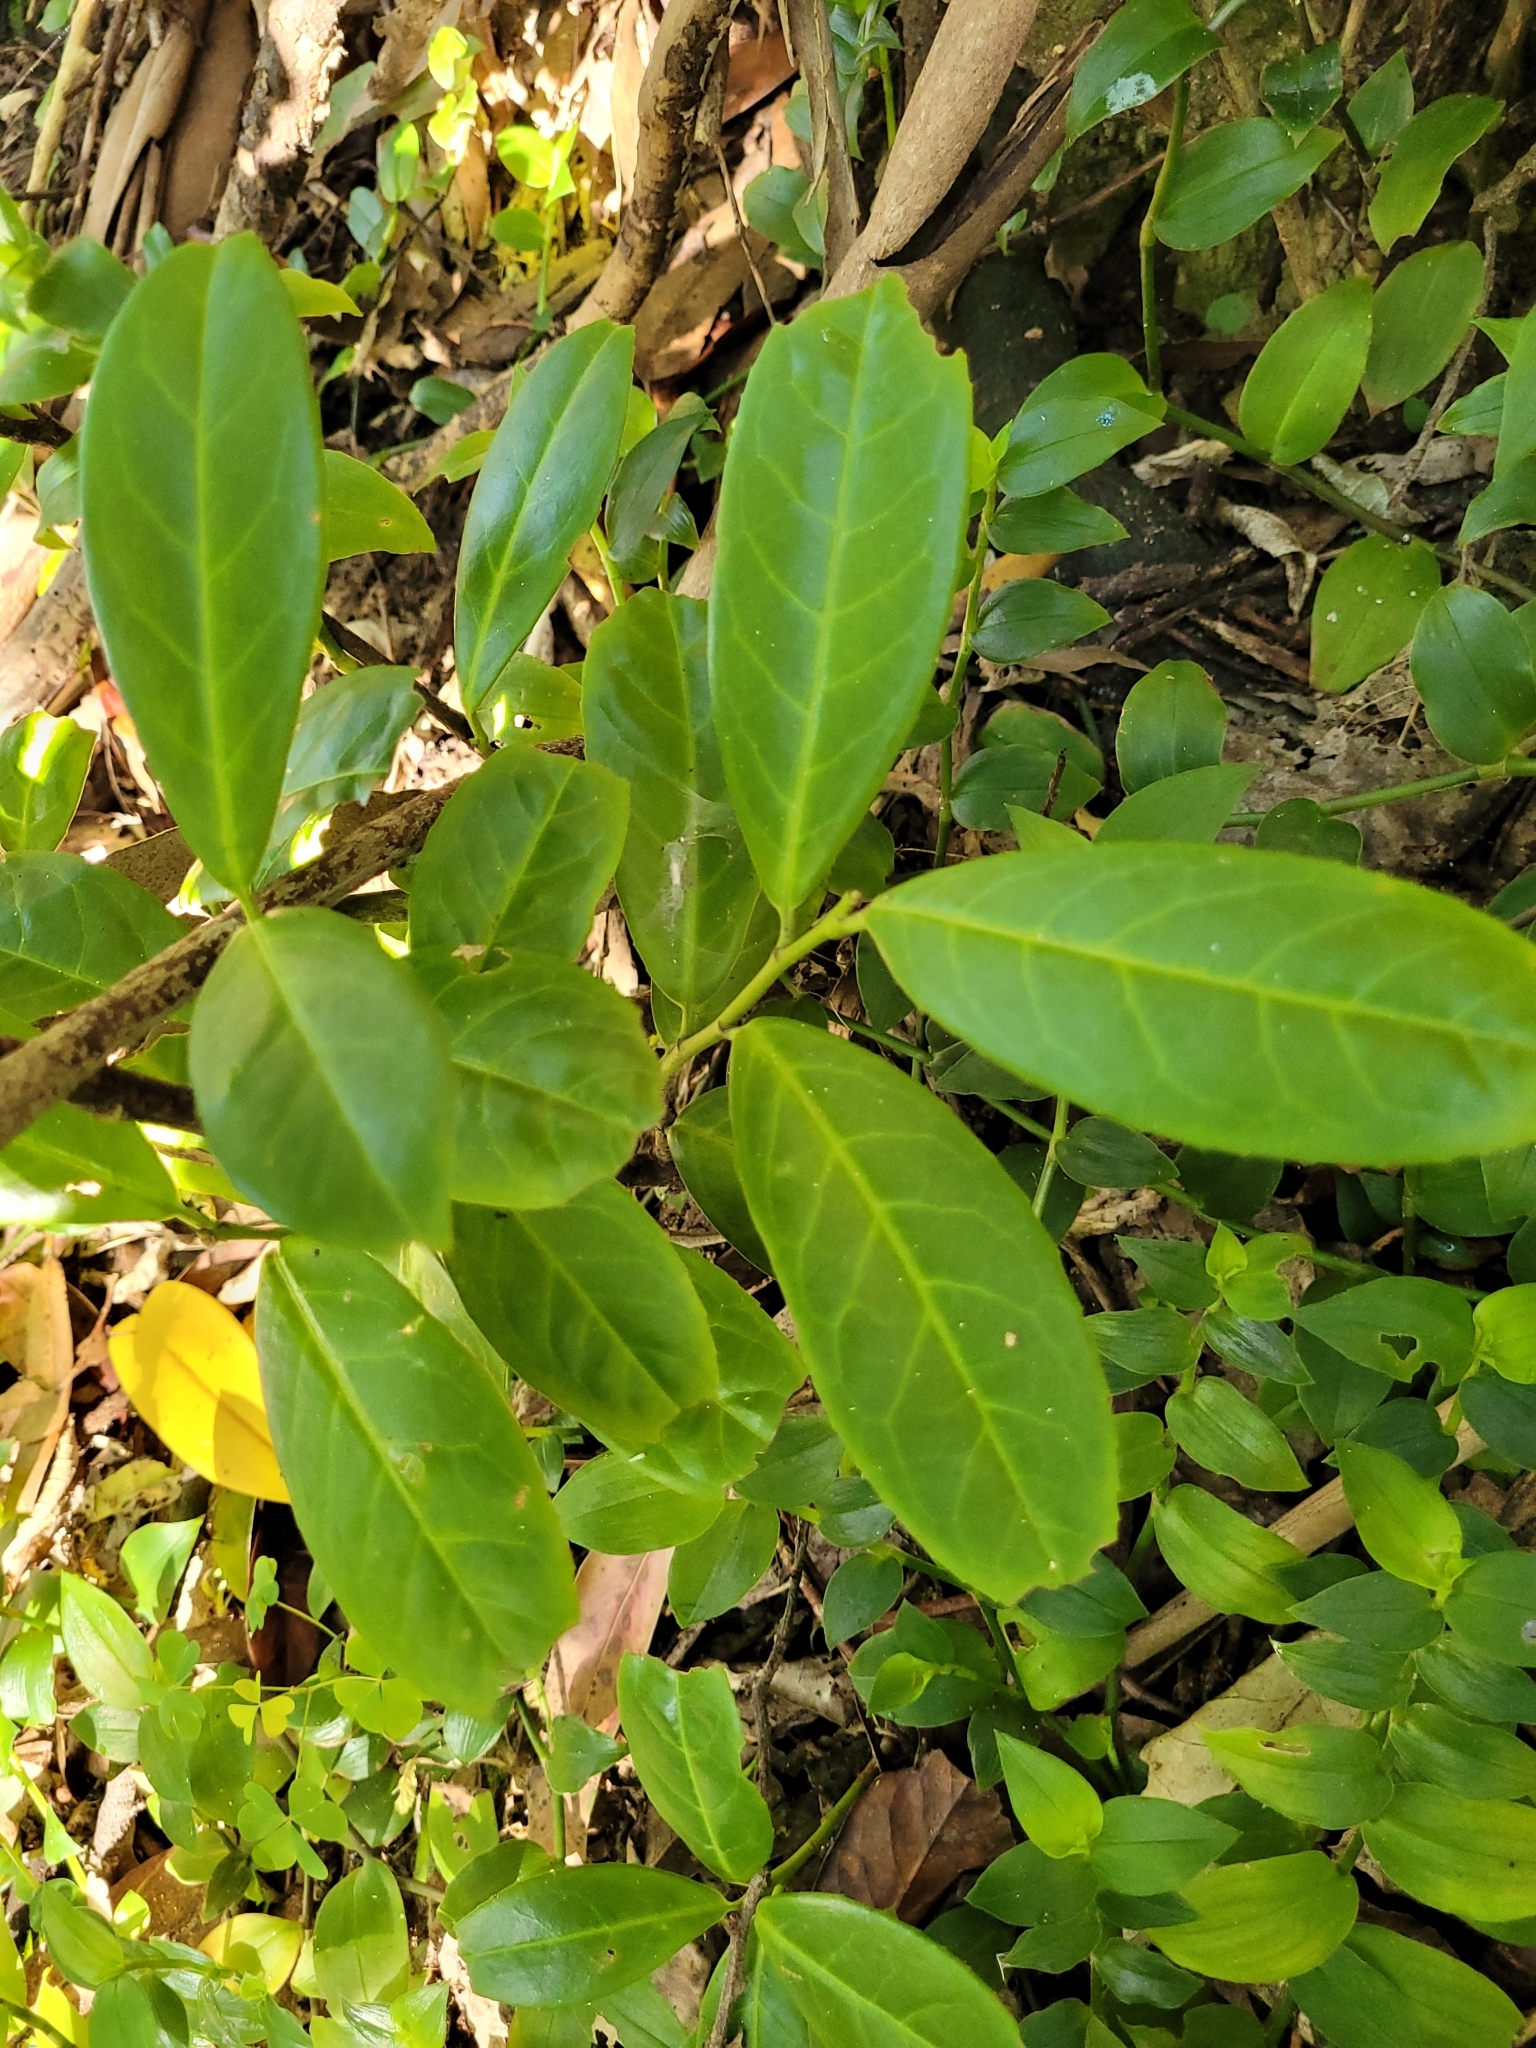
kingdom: Plantae
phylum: Tracheophyta
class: Magnoliopsida
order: Rosales
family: Rosaceae
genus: Prunus
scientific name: Prunus laurocerasus
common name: Cherry laurel
